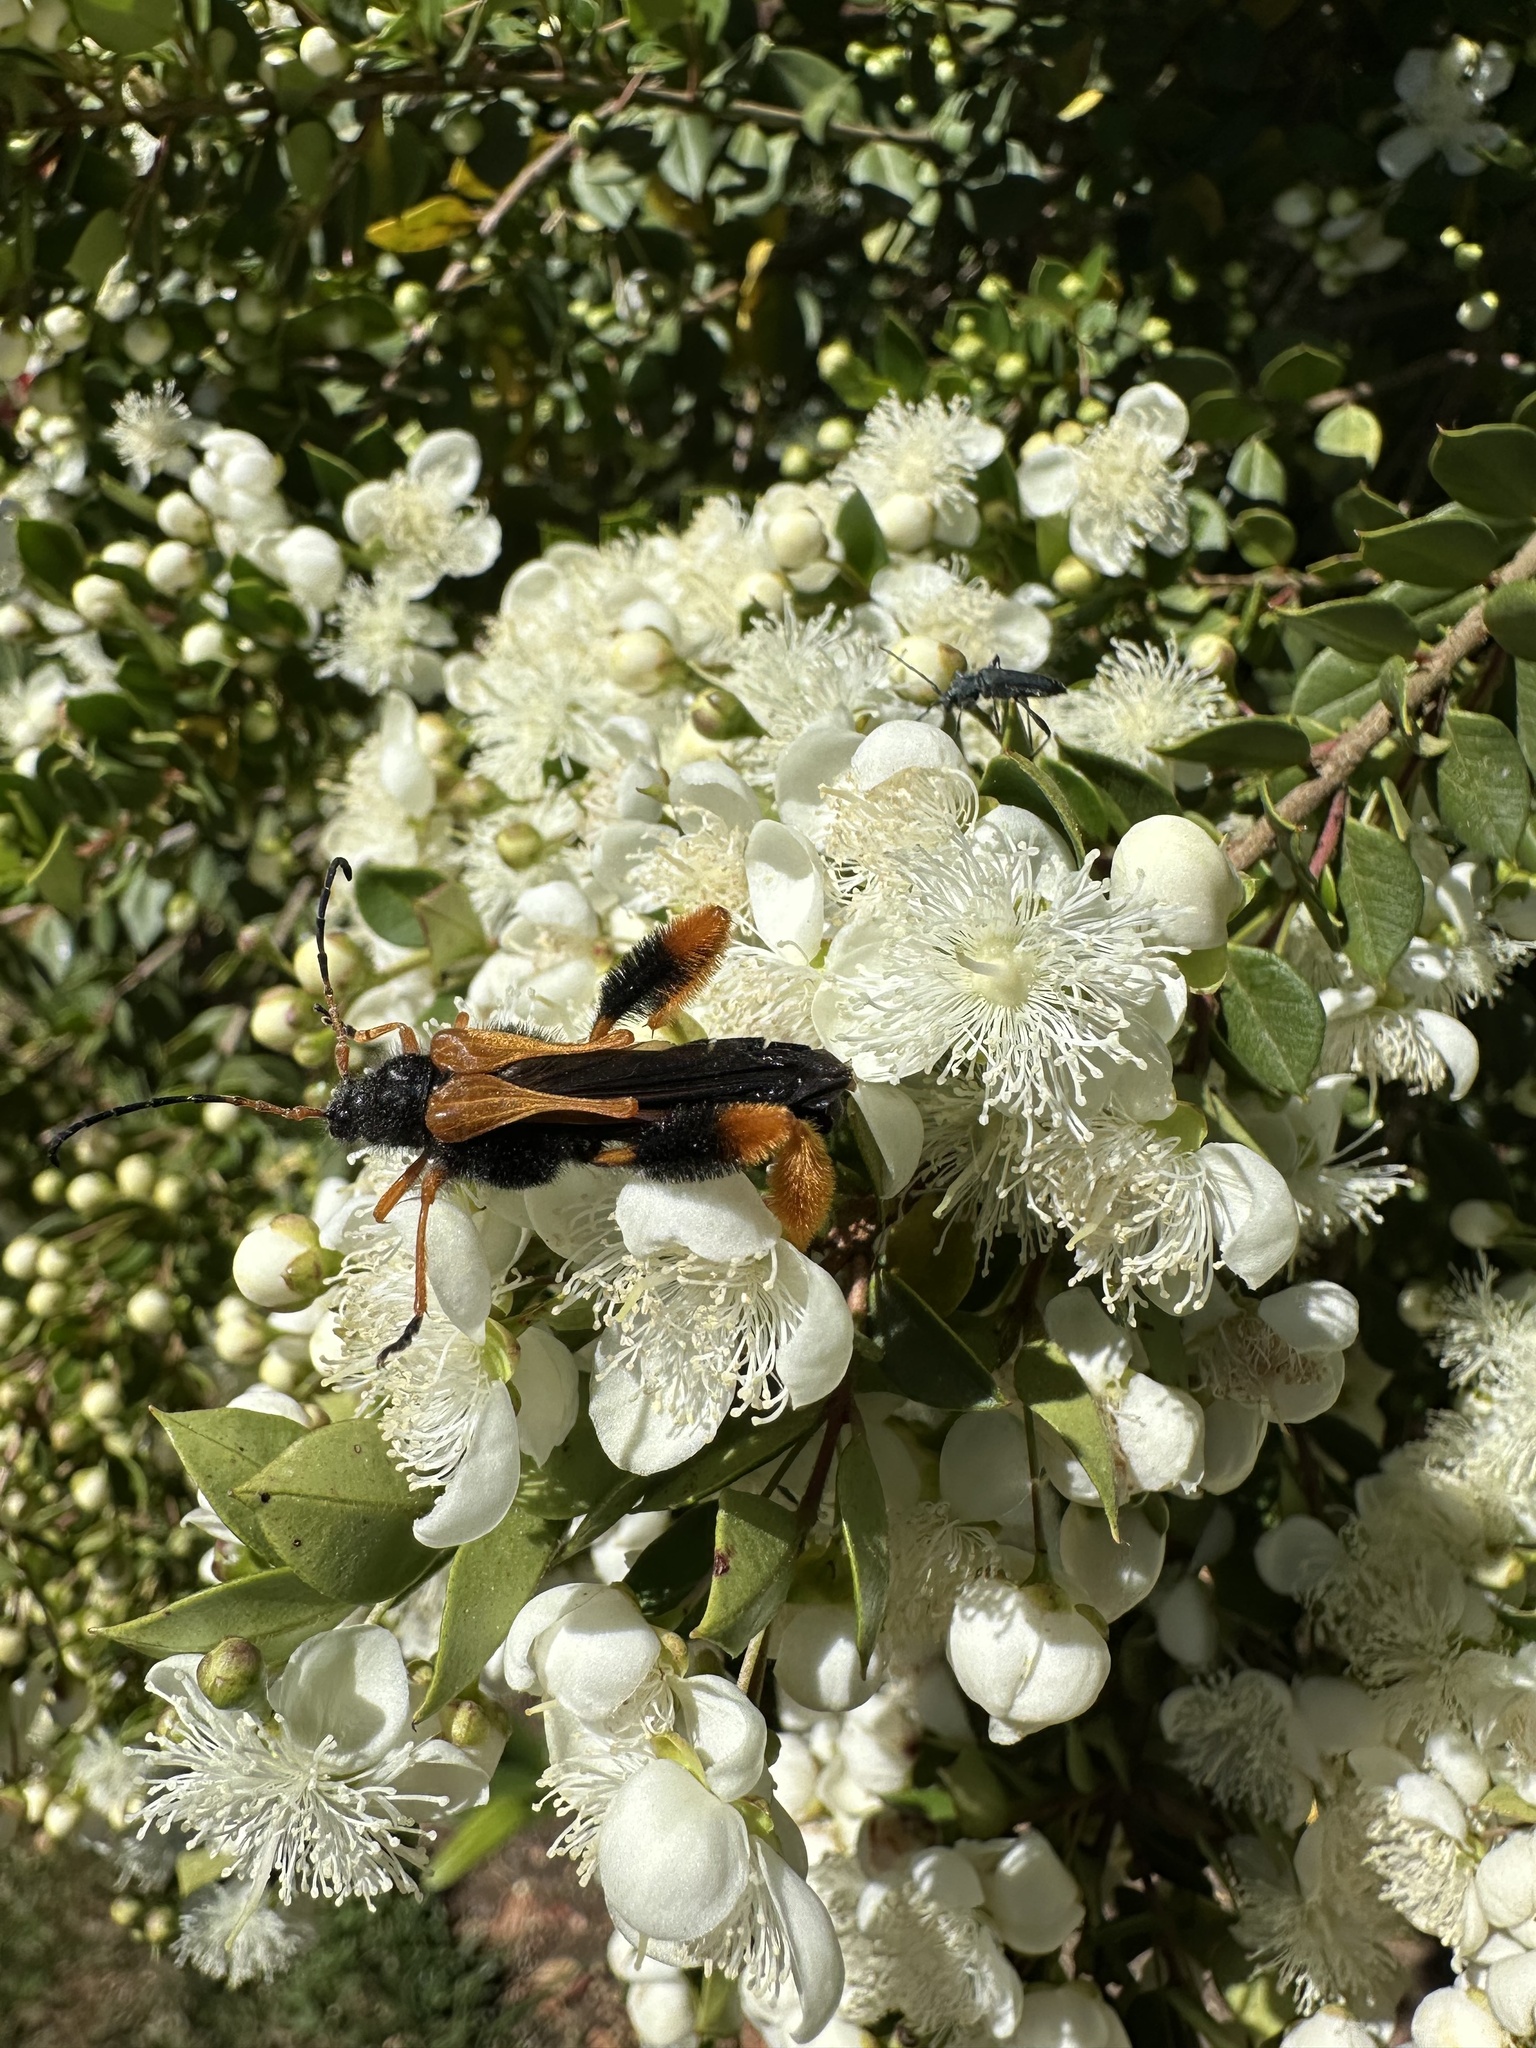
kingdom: Animalia
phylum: Arthropoda
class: Insecta
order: Coleoptera
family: Cerambycidae
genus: Callisphyris
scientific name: Callisphyris macropus
